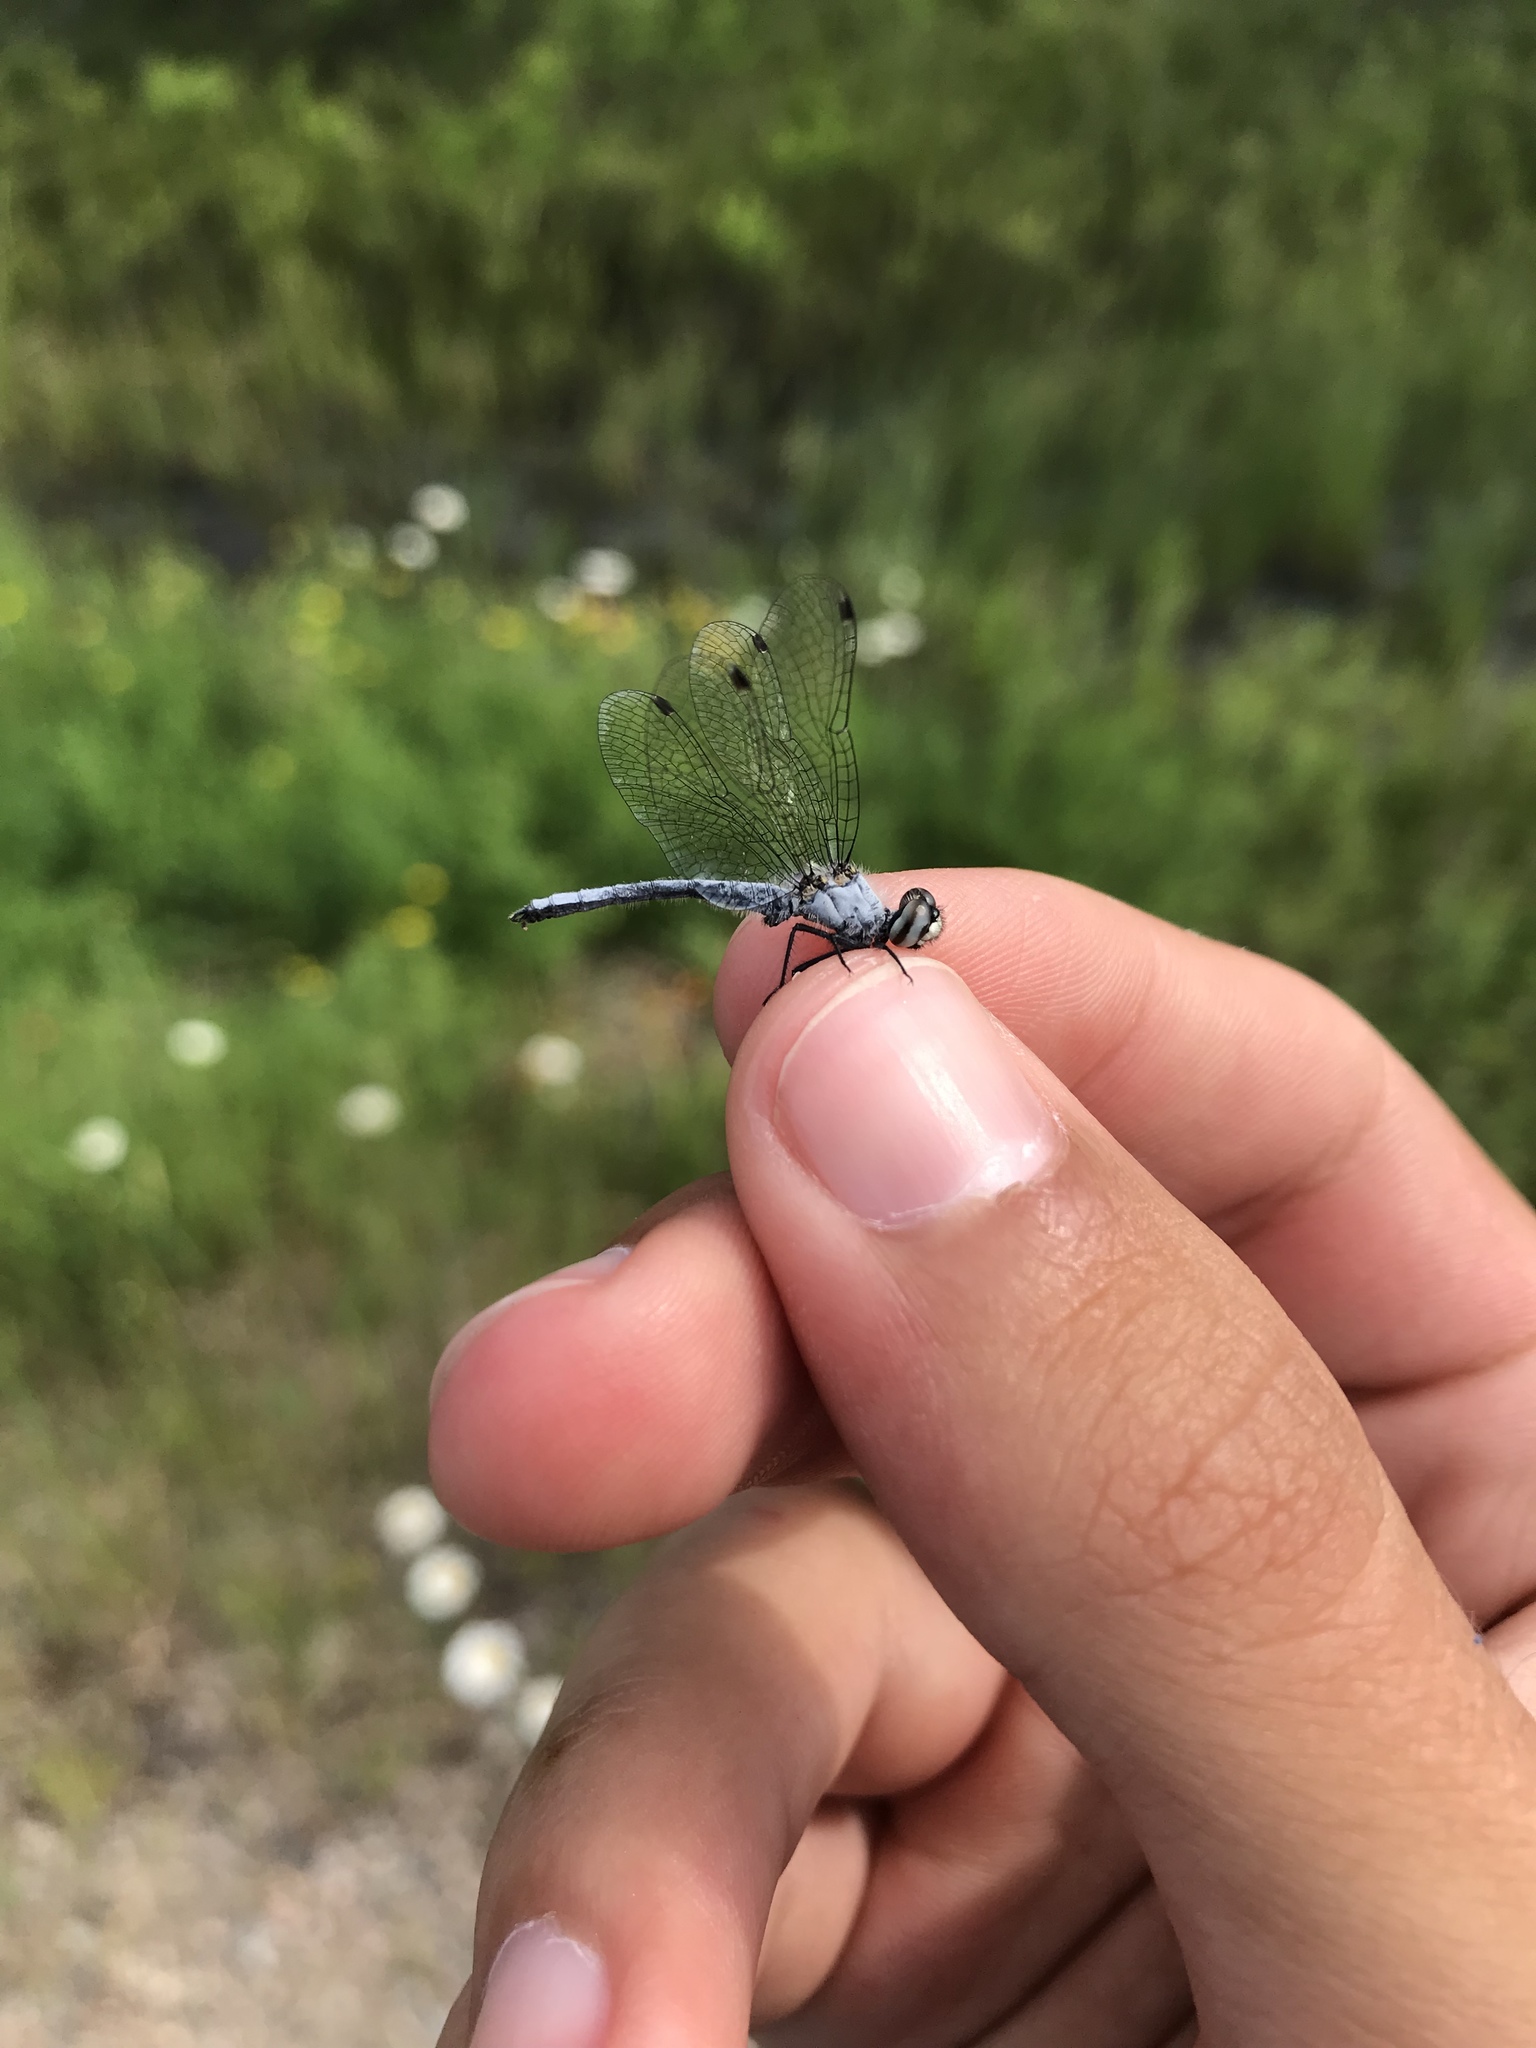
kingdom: Animalia
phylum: Arthropoda
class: Insecta
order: Odonata
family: Libellulidae
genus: Nannothemis
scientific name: Nannothemis bella
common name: Elfin skimmer
